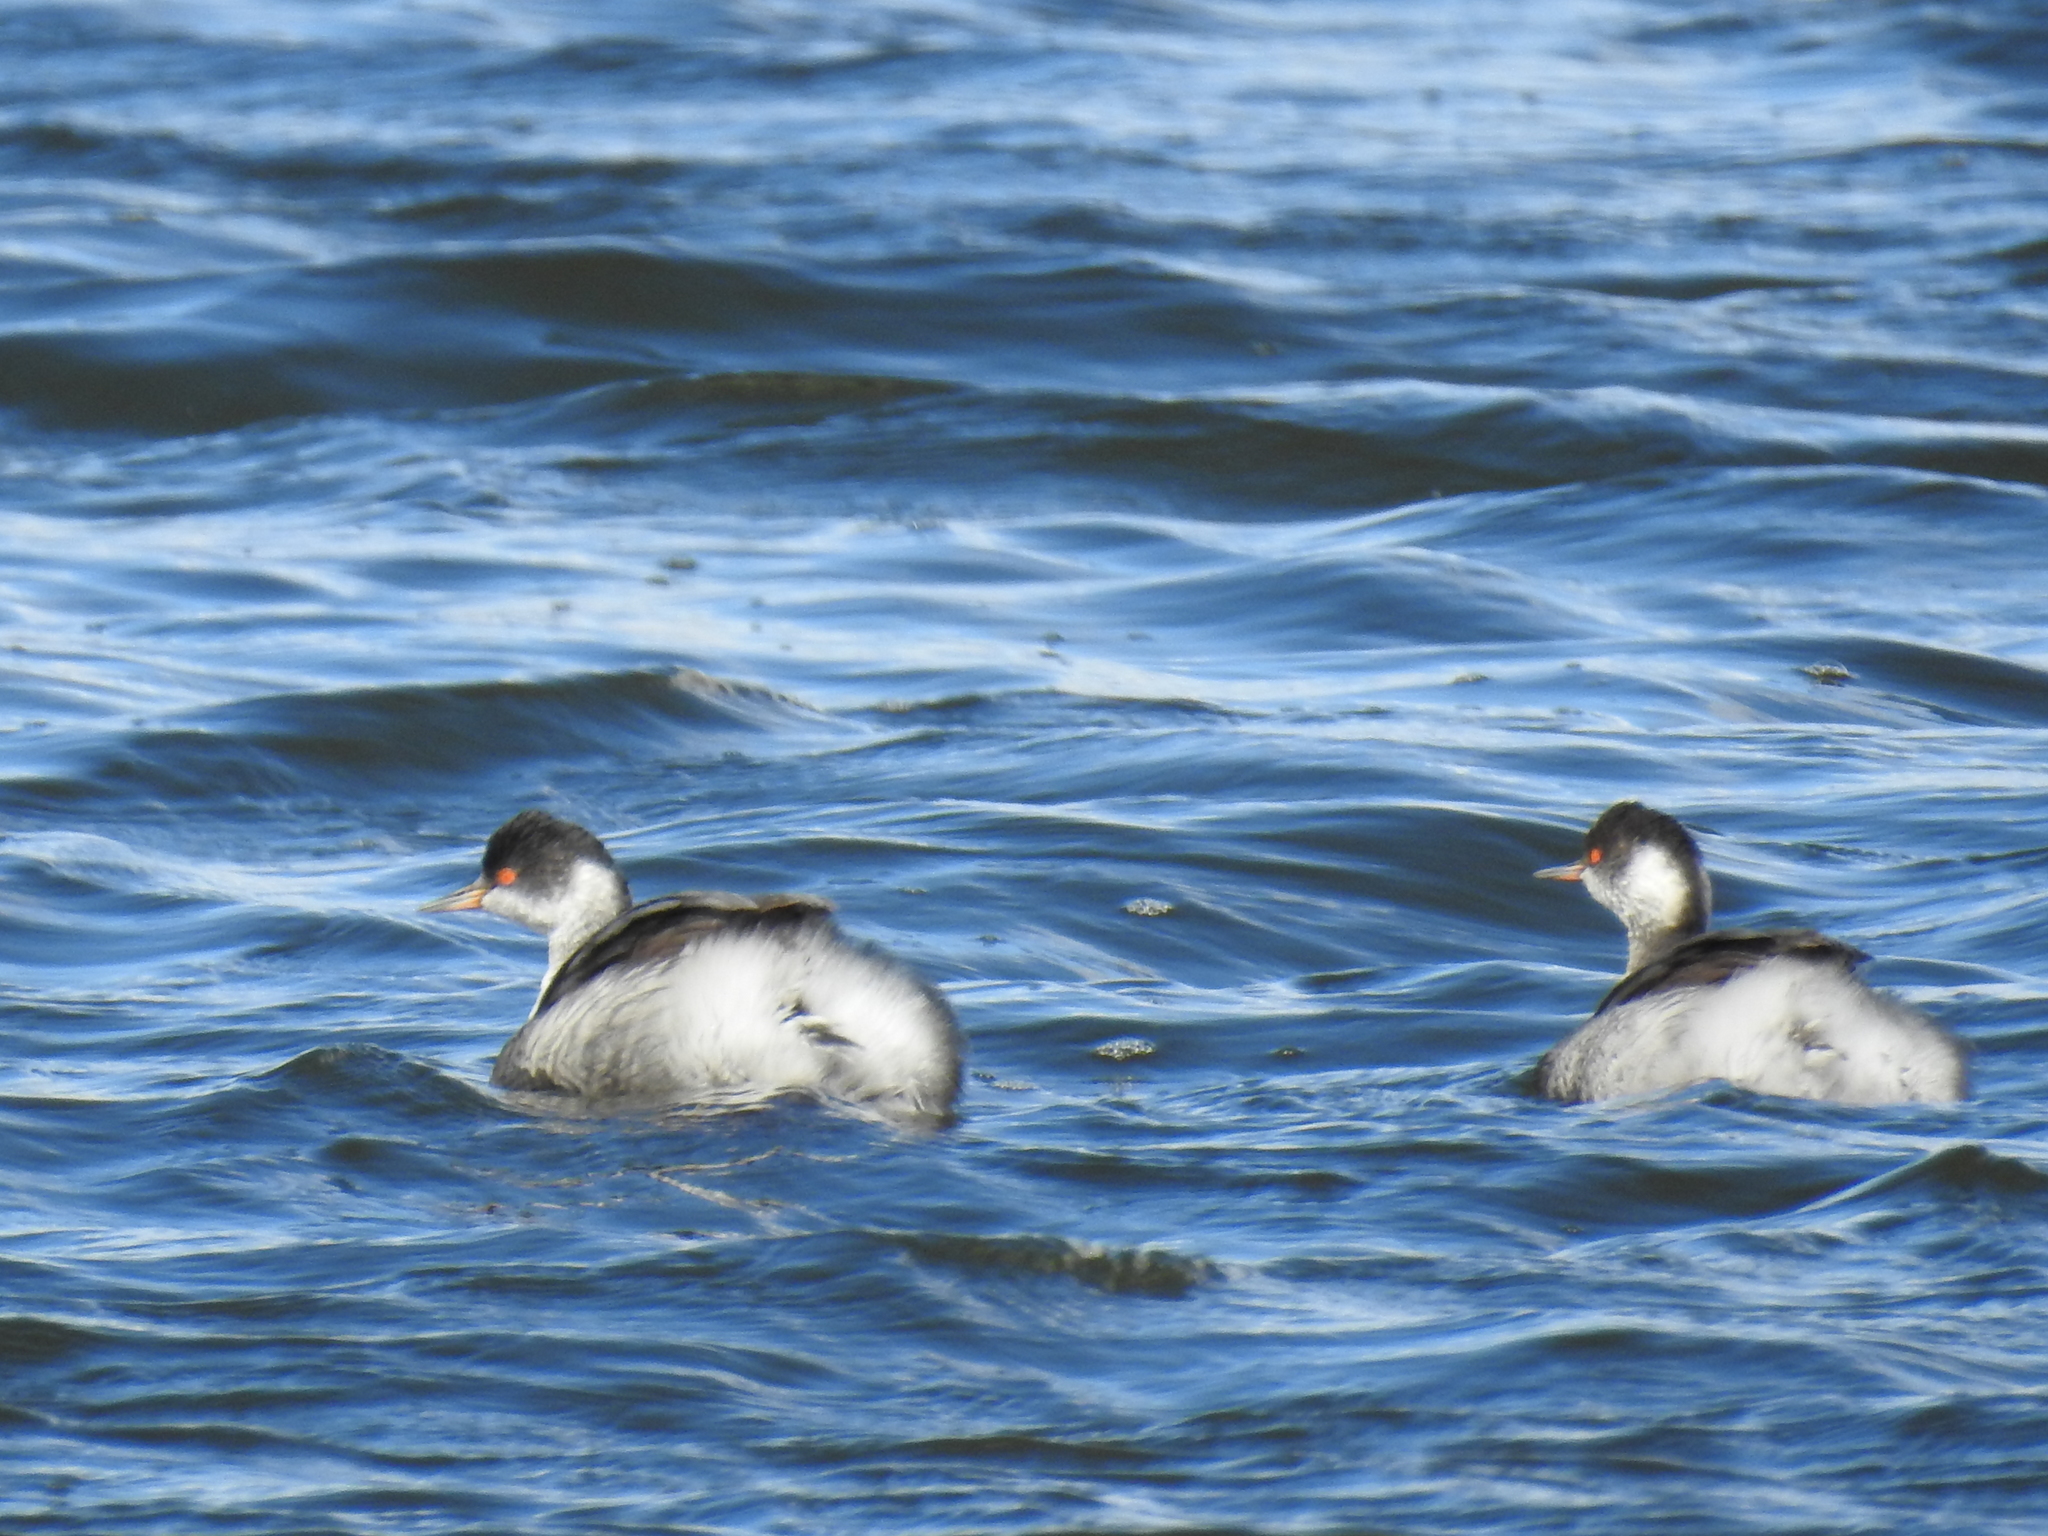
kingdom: Animalia
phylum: Chordata
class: Aves
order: Podicipediformes
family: Podicipedidae
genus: Podiceps
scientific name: Podiceps nigricollis
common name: Black-necked grebe
